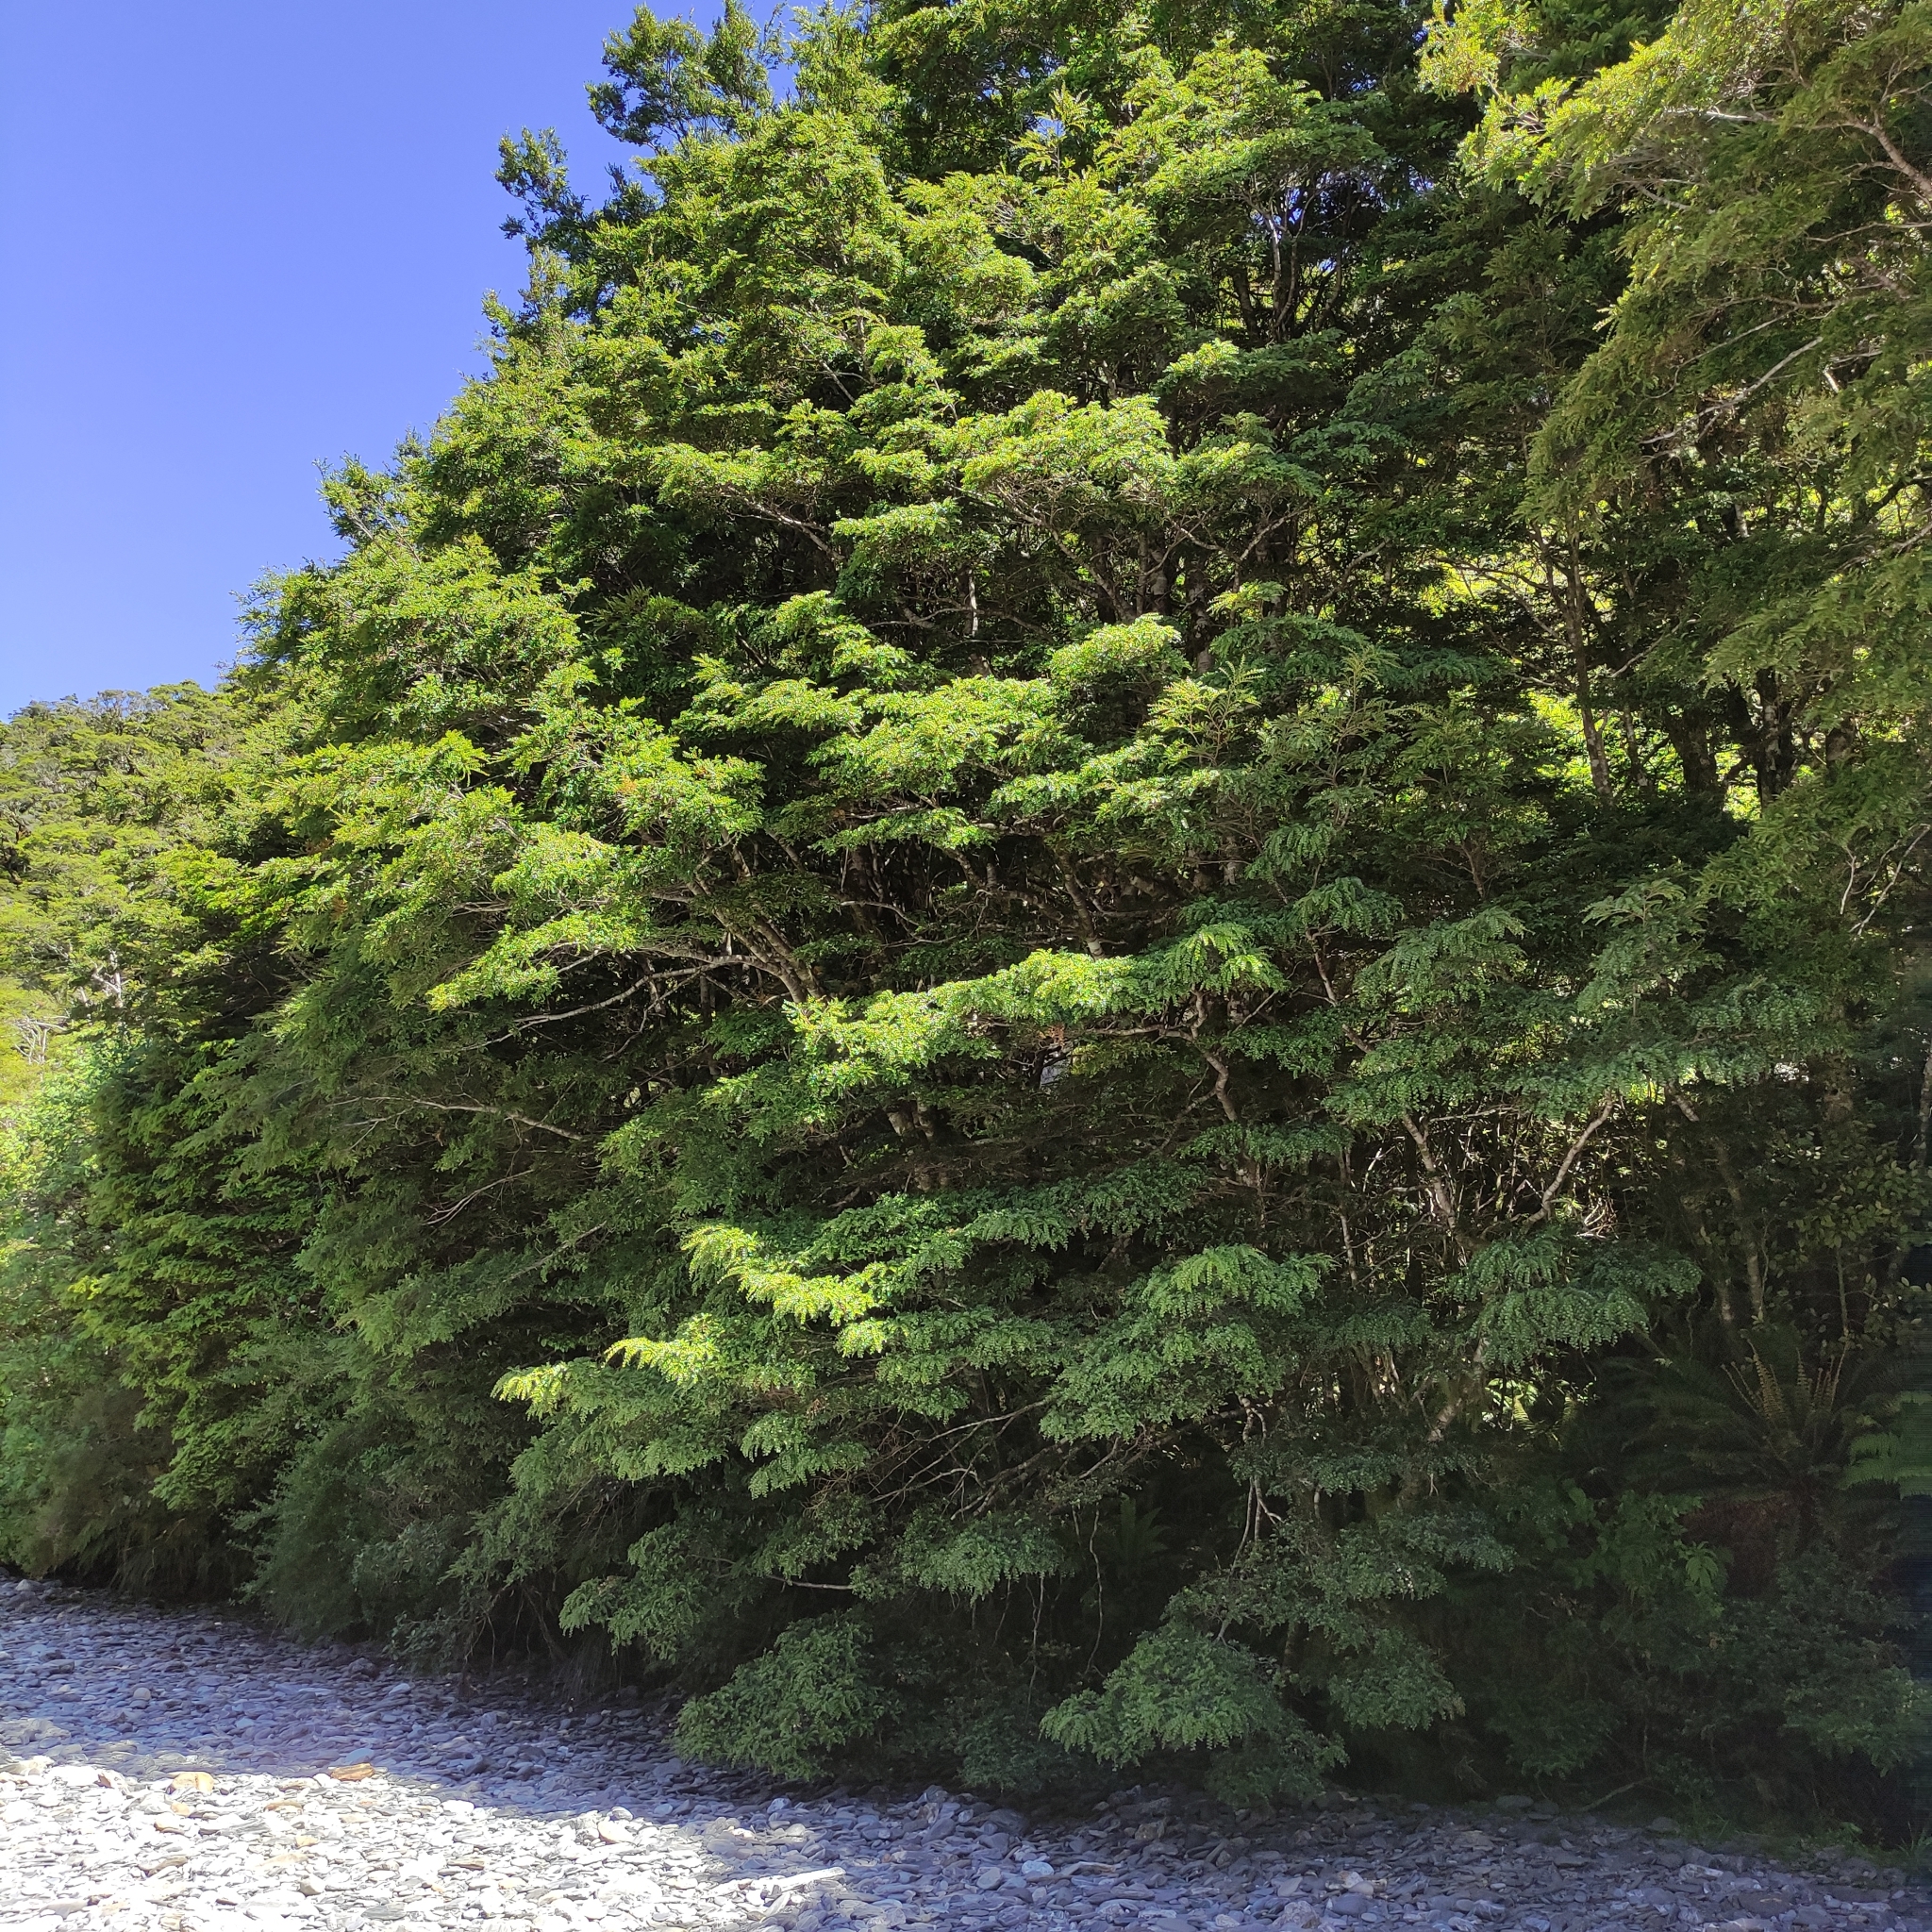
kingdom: Plantae
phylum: Tracheophyta
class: Magnoliopsida
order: Fagales
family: Nothofagaceae
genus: Nothofagus
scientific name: Nothofagus menziesii
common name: Silver beech
